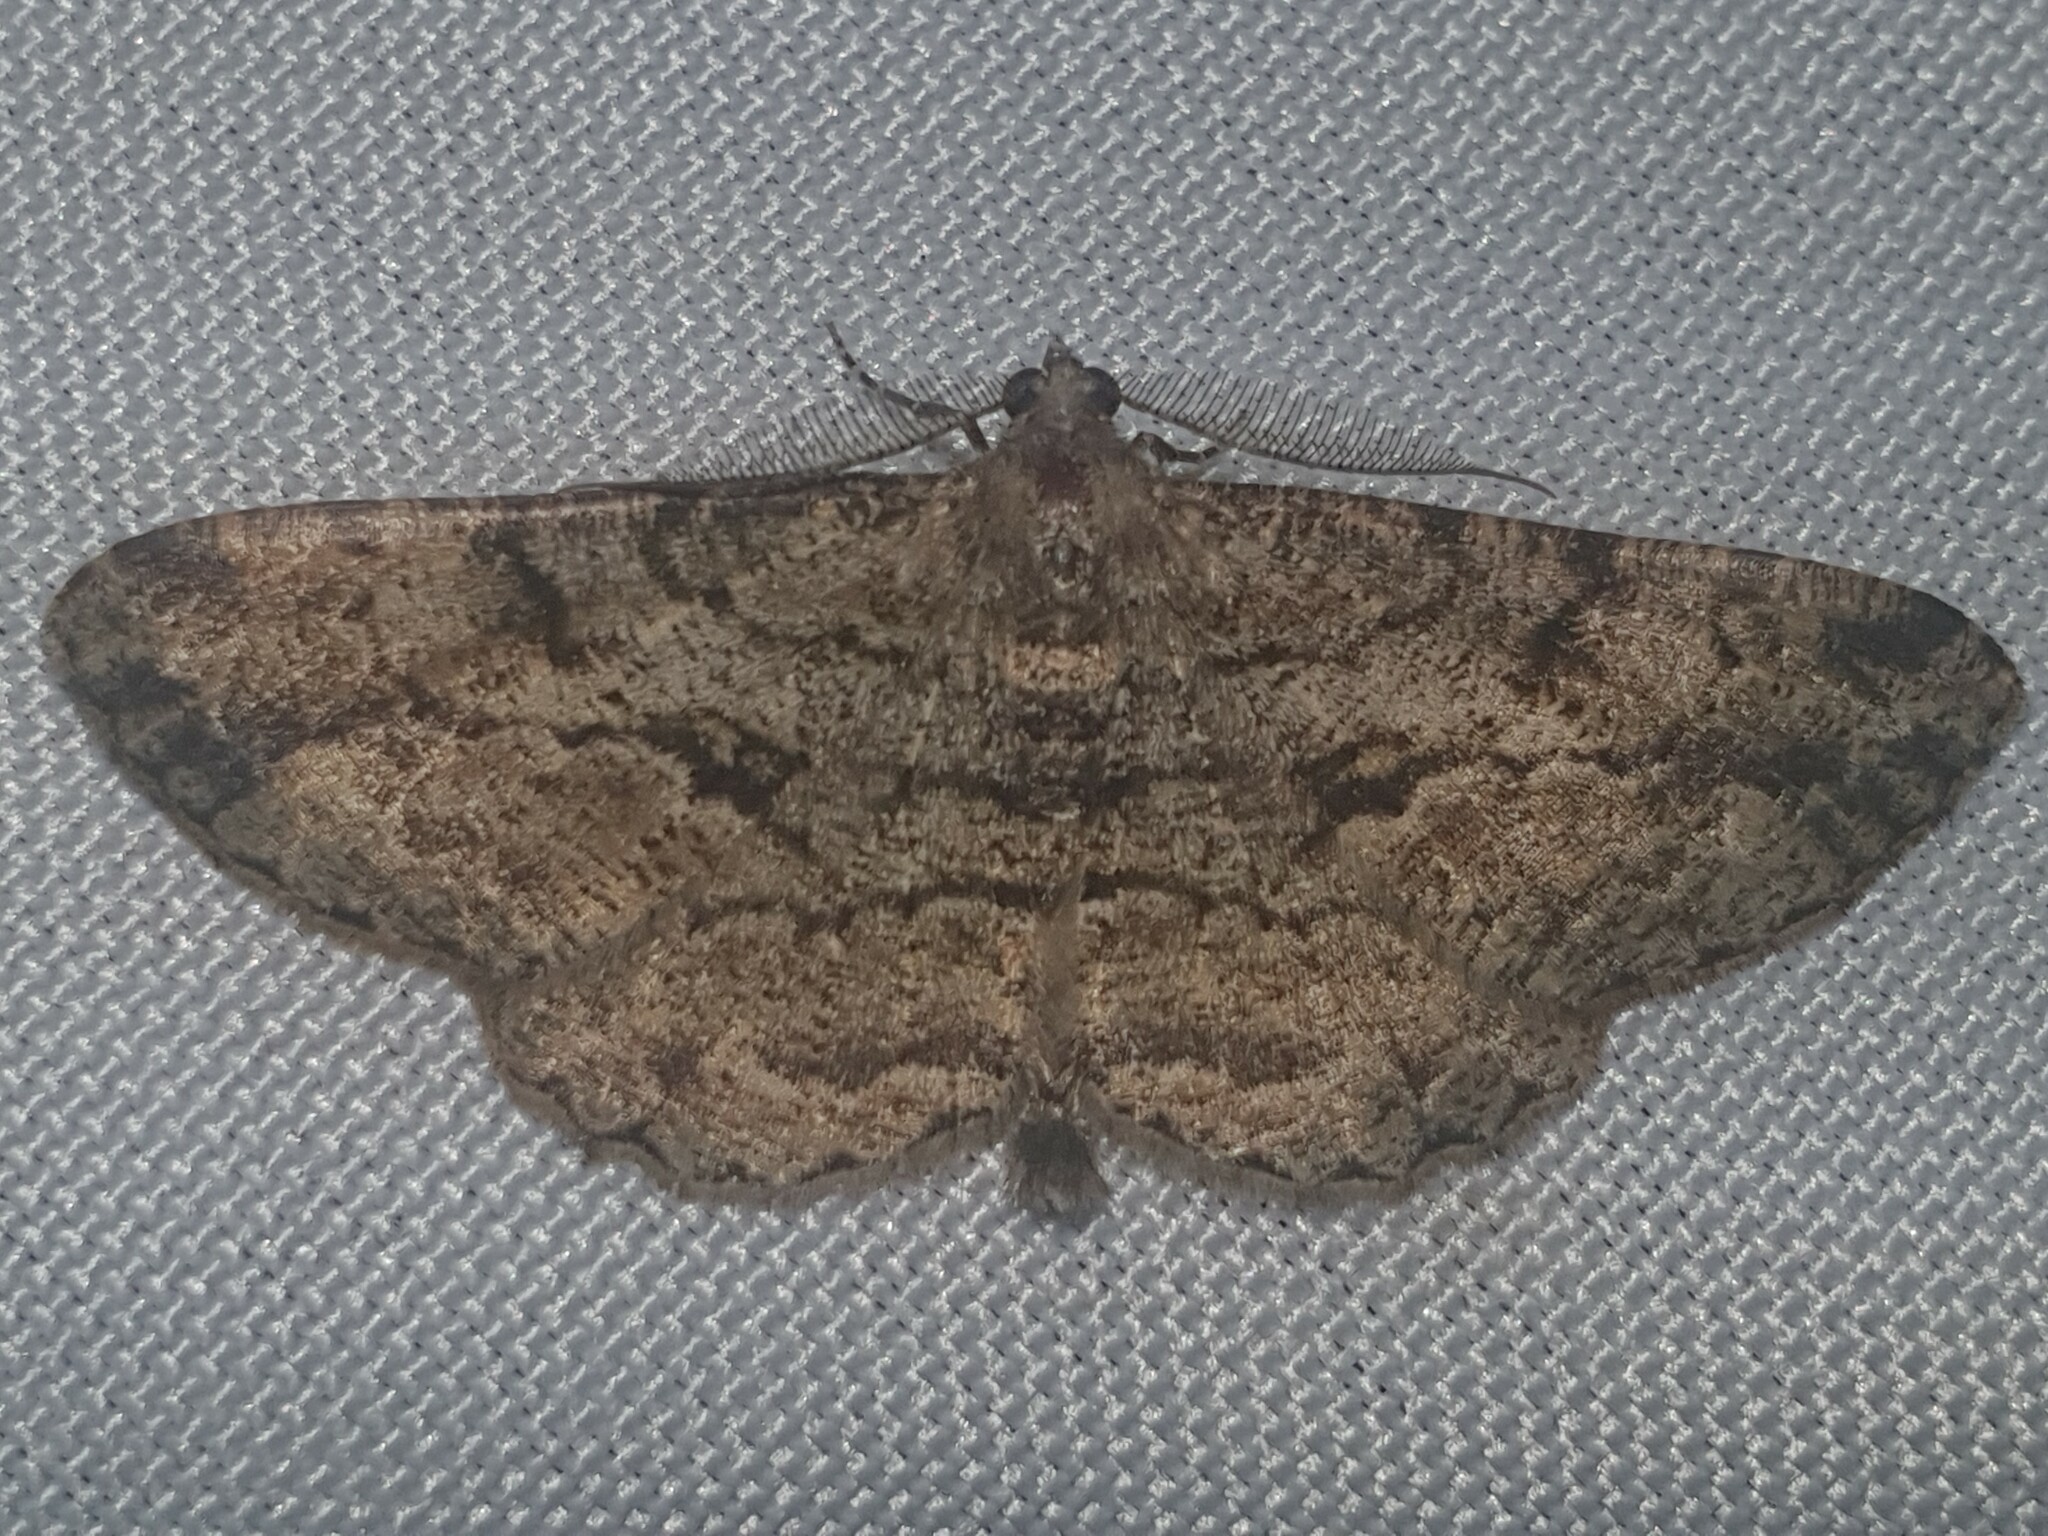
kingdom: Animalia
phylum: Arthropoda
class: Insecta
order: Lepidoptera
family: Geometridae
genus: Peribatodes
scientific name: Peribatodes rhomboidaria
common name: Willow beauty
